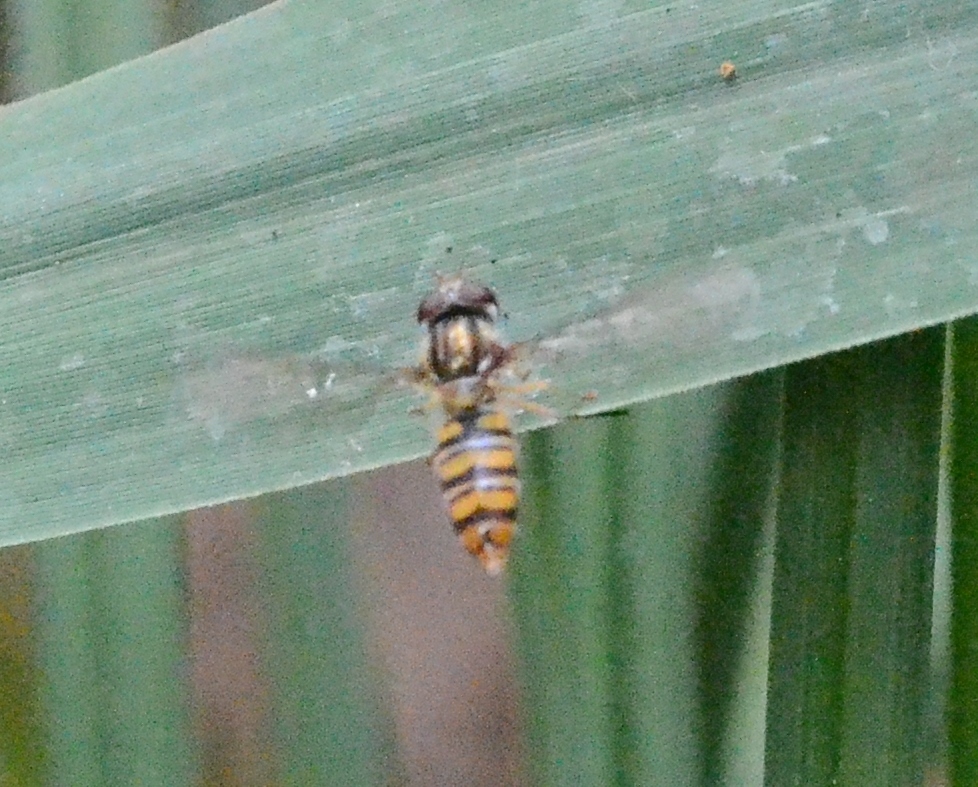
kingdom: Animalia
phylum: Arthropoda
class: Insecta
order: Diptera
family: Syrphidae
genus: Episyrphus
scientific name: Episyrphus balteatus
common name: Marmalade hoverfly
